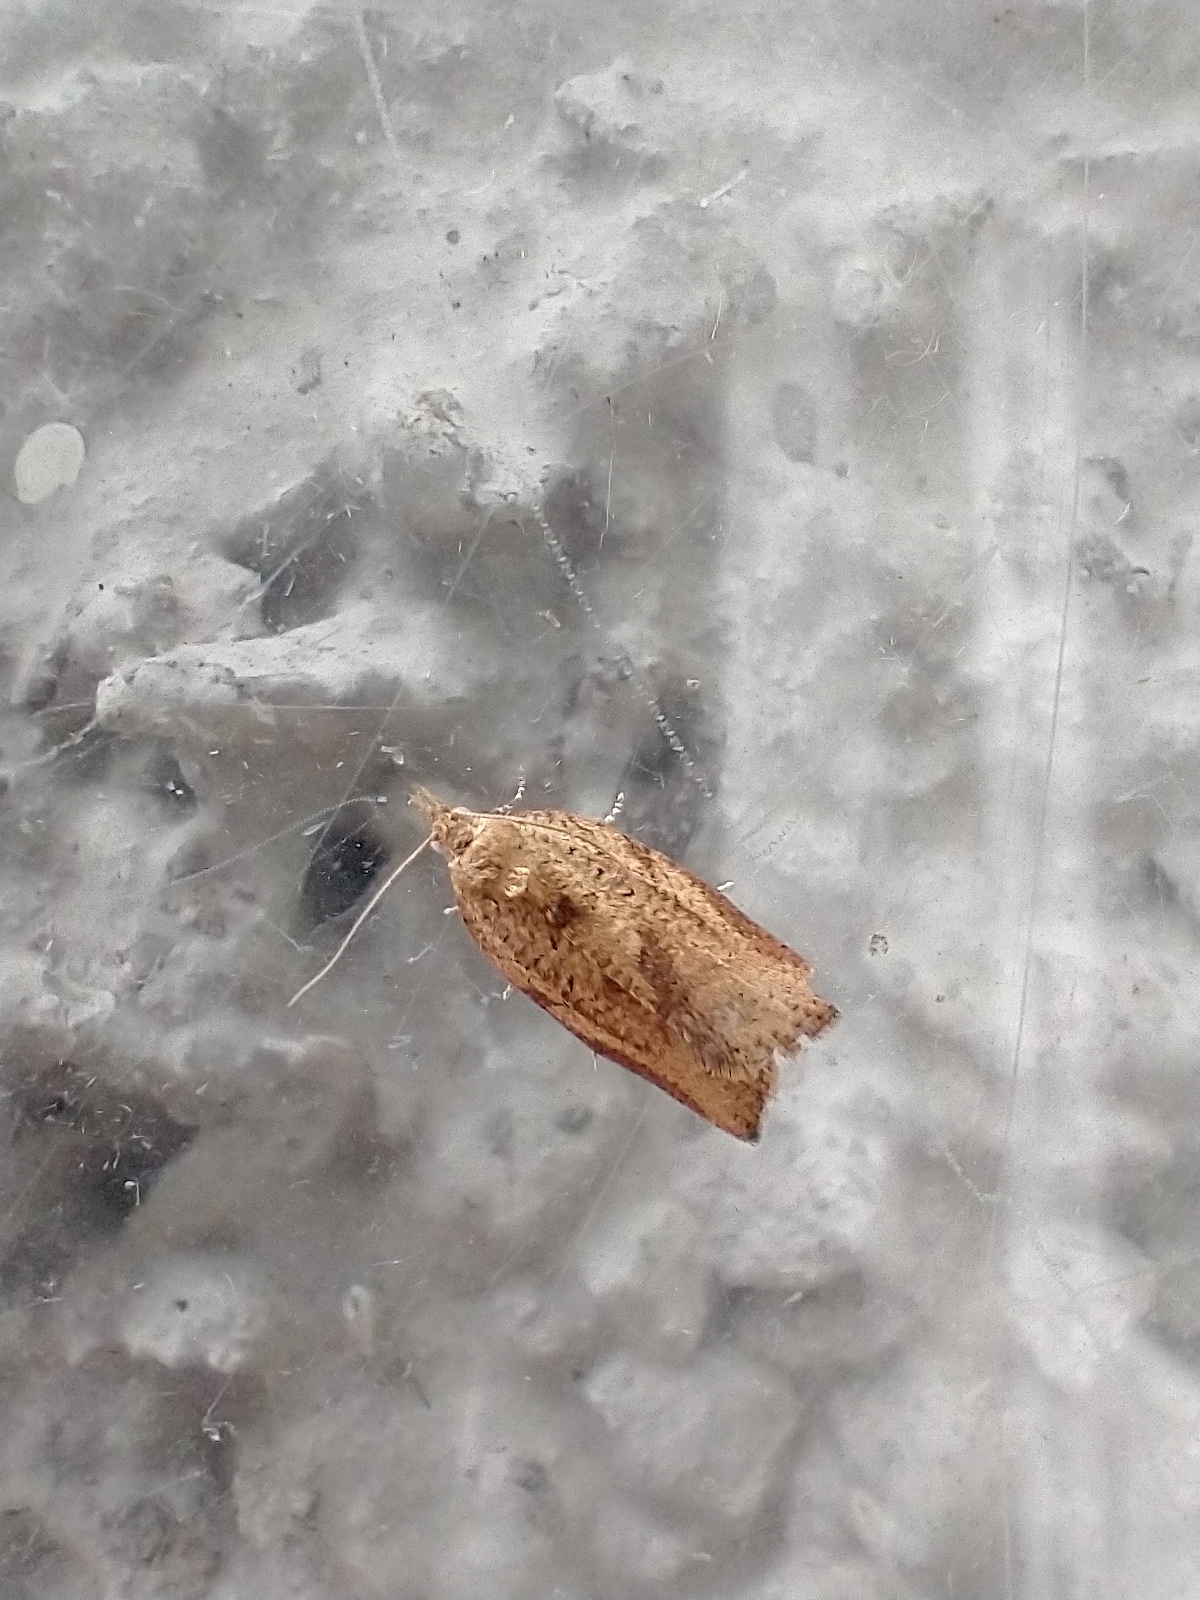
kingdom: Animalia
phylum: Arthropoda
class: Insecta
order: Lepidoptera
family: Tortricidae
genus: Epiphyas
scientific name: Epiphyas postvittana
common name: Light brown apple moth
